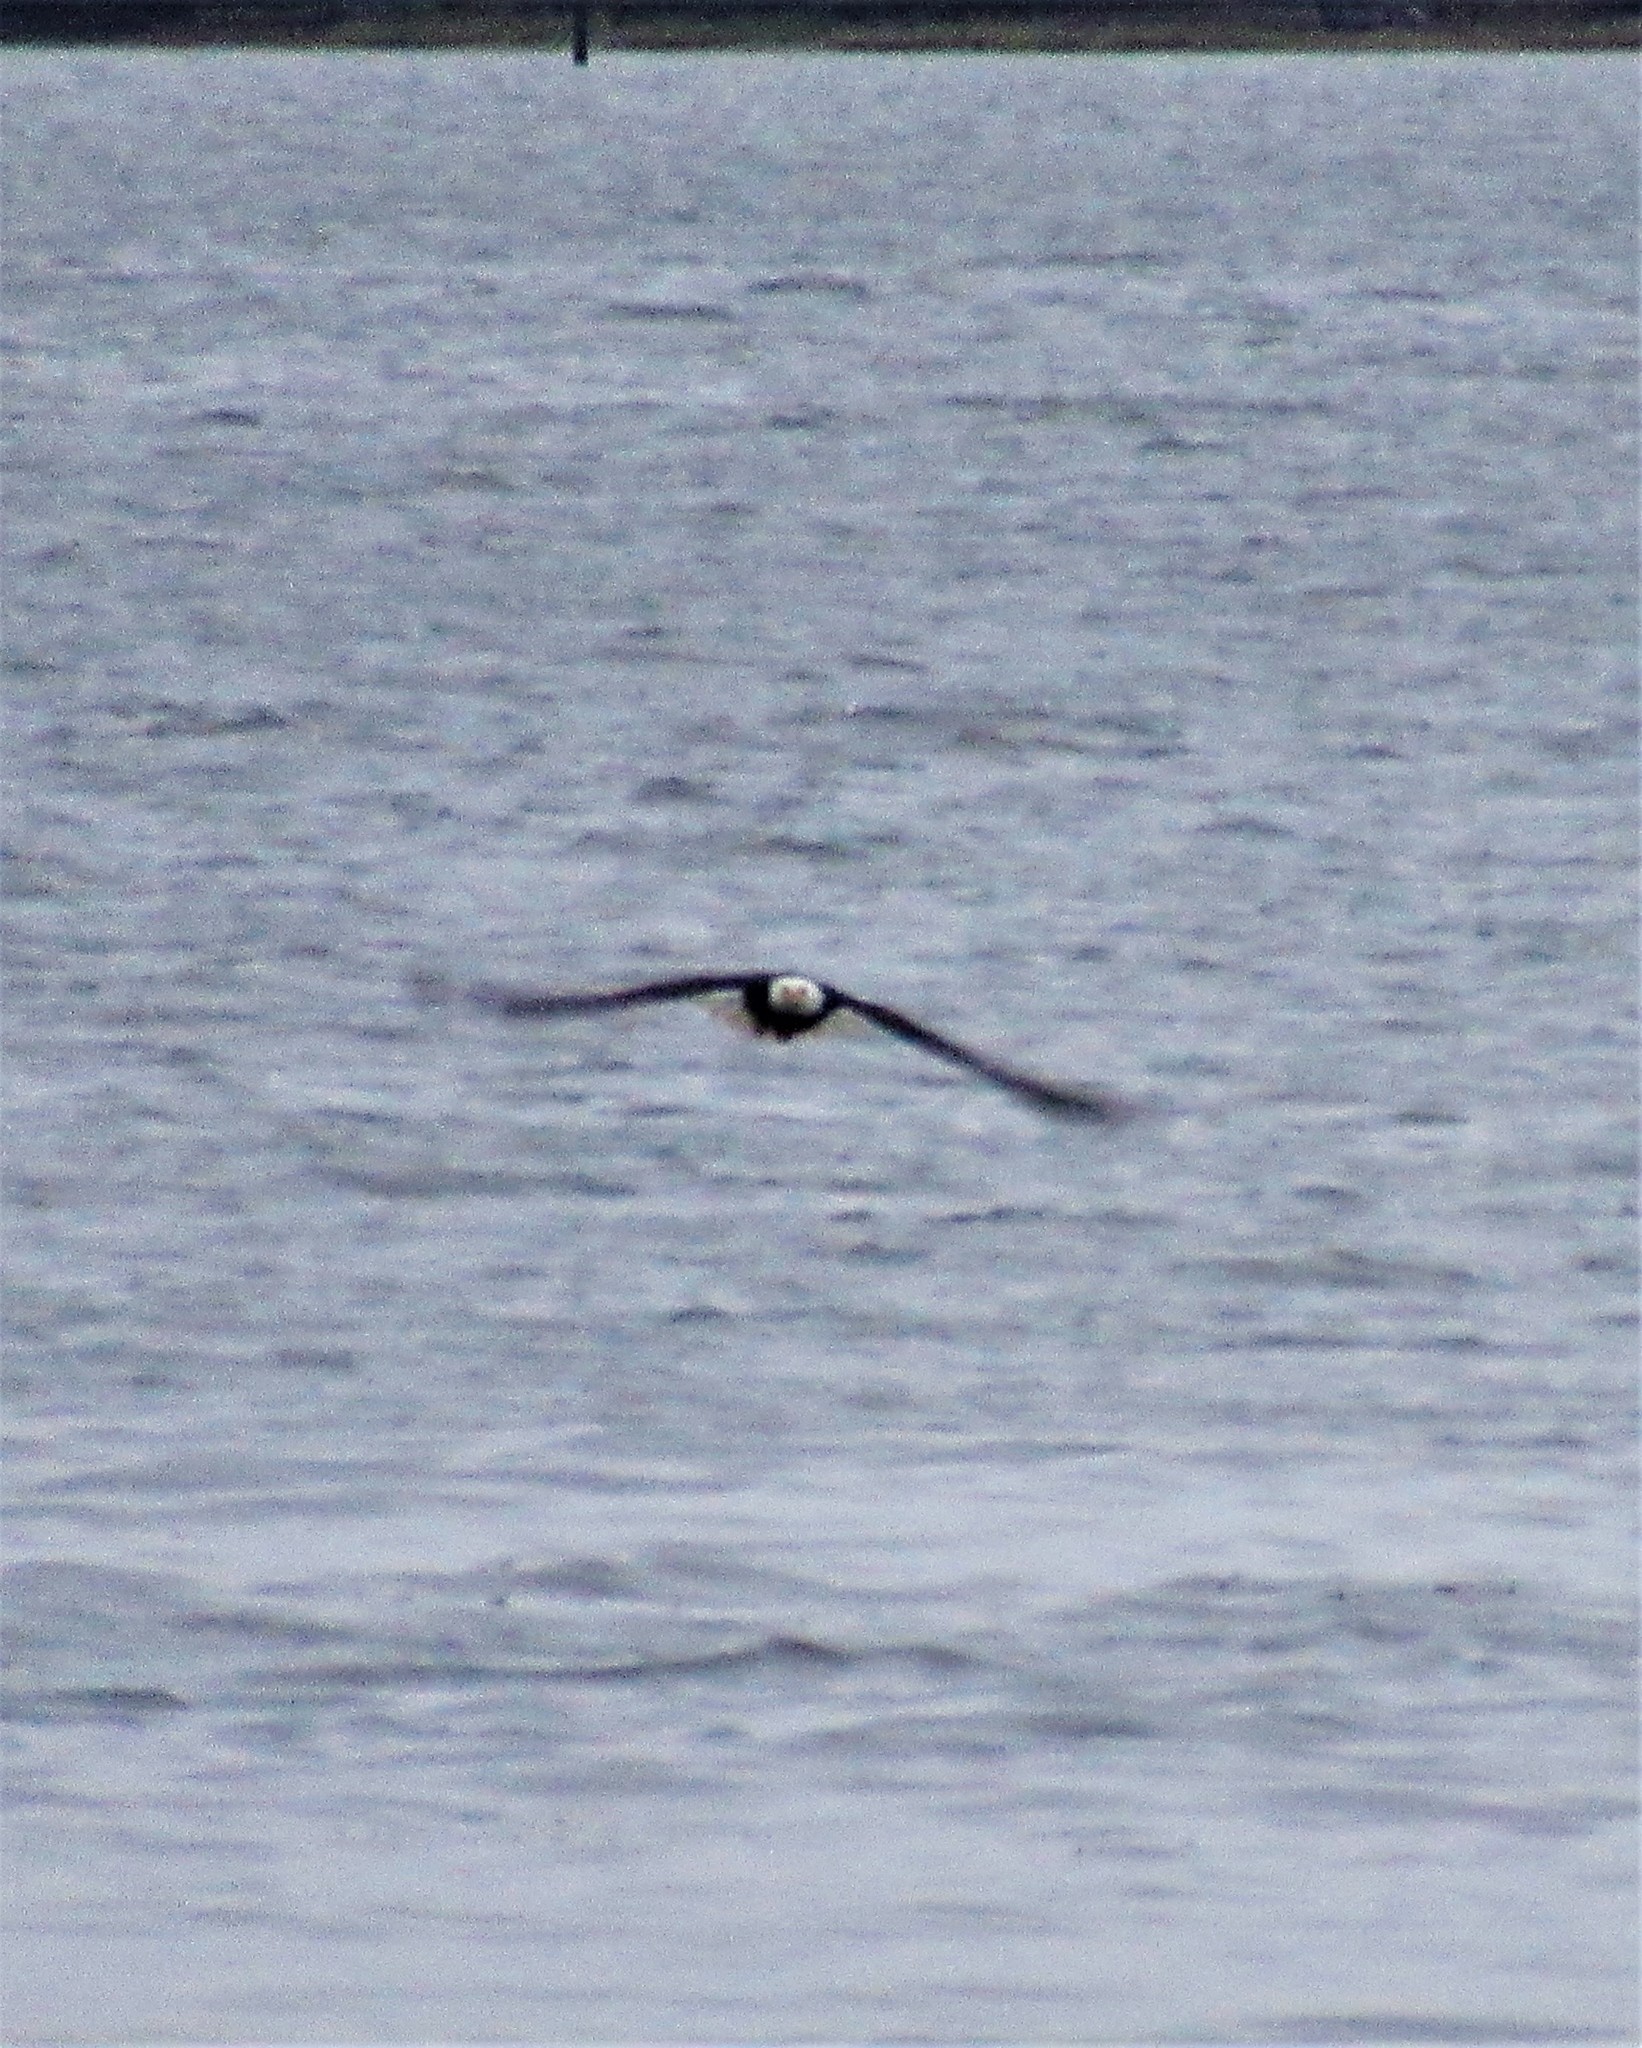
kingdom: Animalia
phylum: Chordata
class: Aves
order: Accipitriformes
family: Accipitridae
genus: Haliaeetus
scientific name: Haliaeetus leucocephalus
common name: Bald eagle
